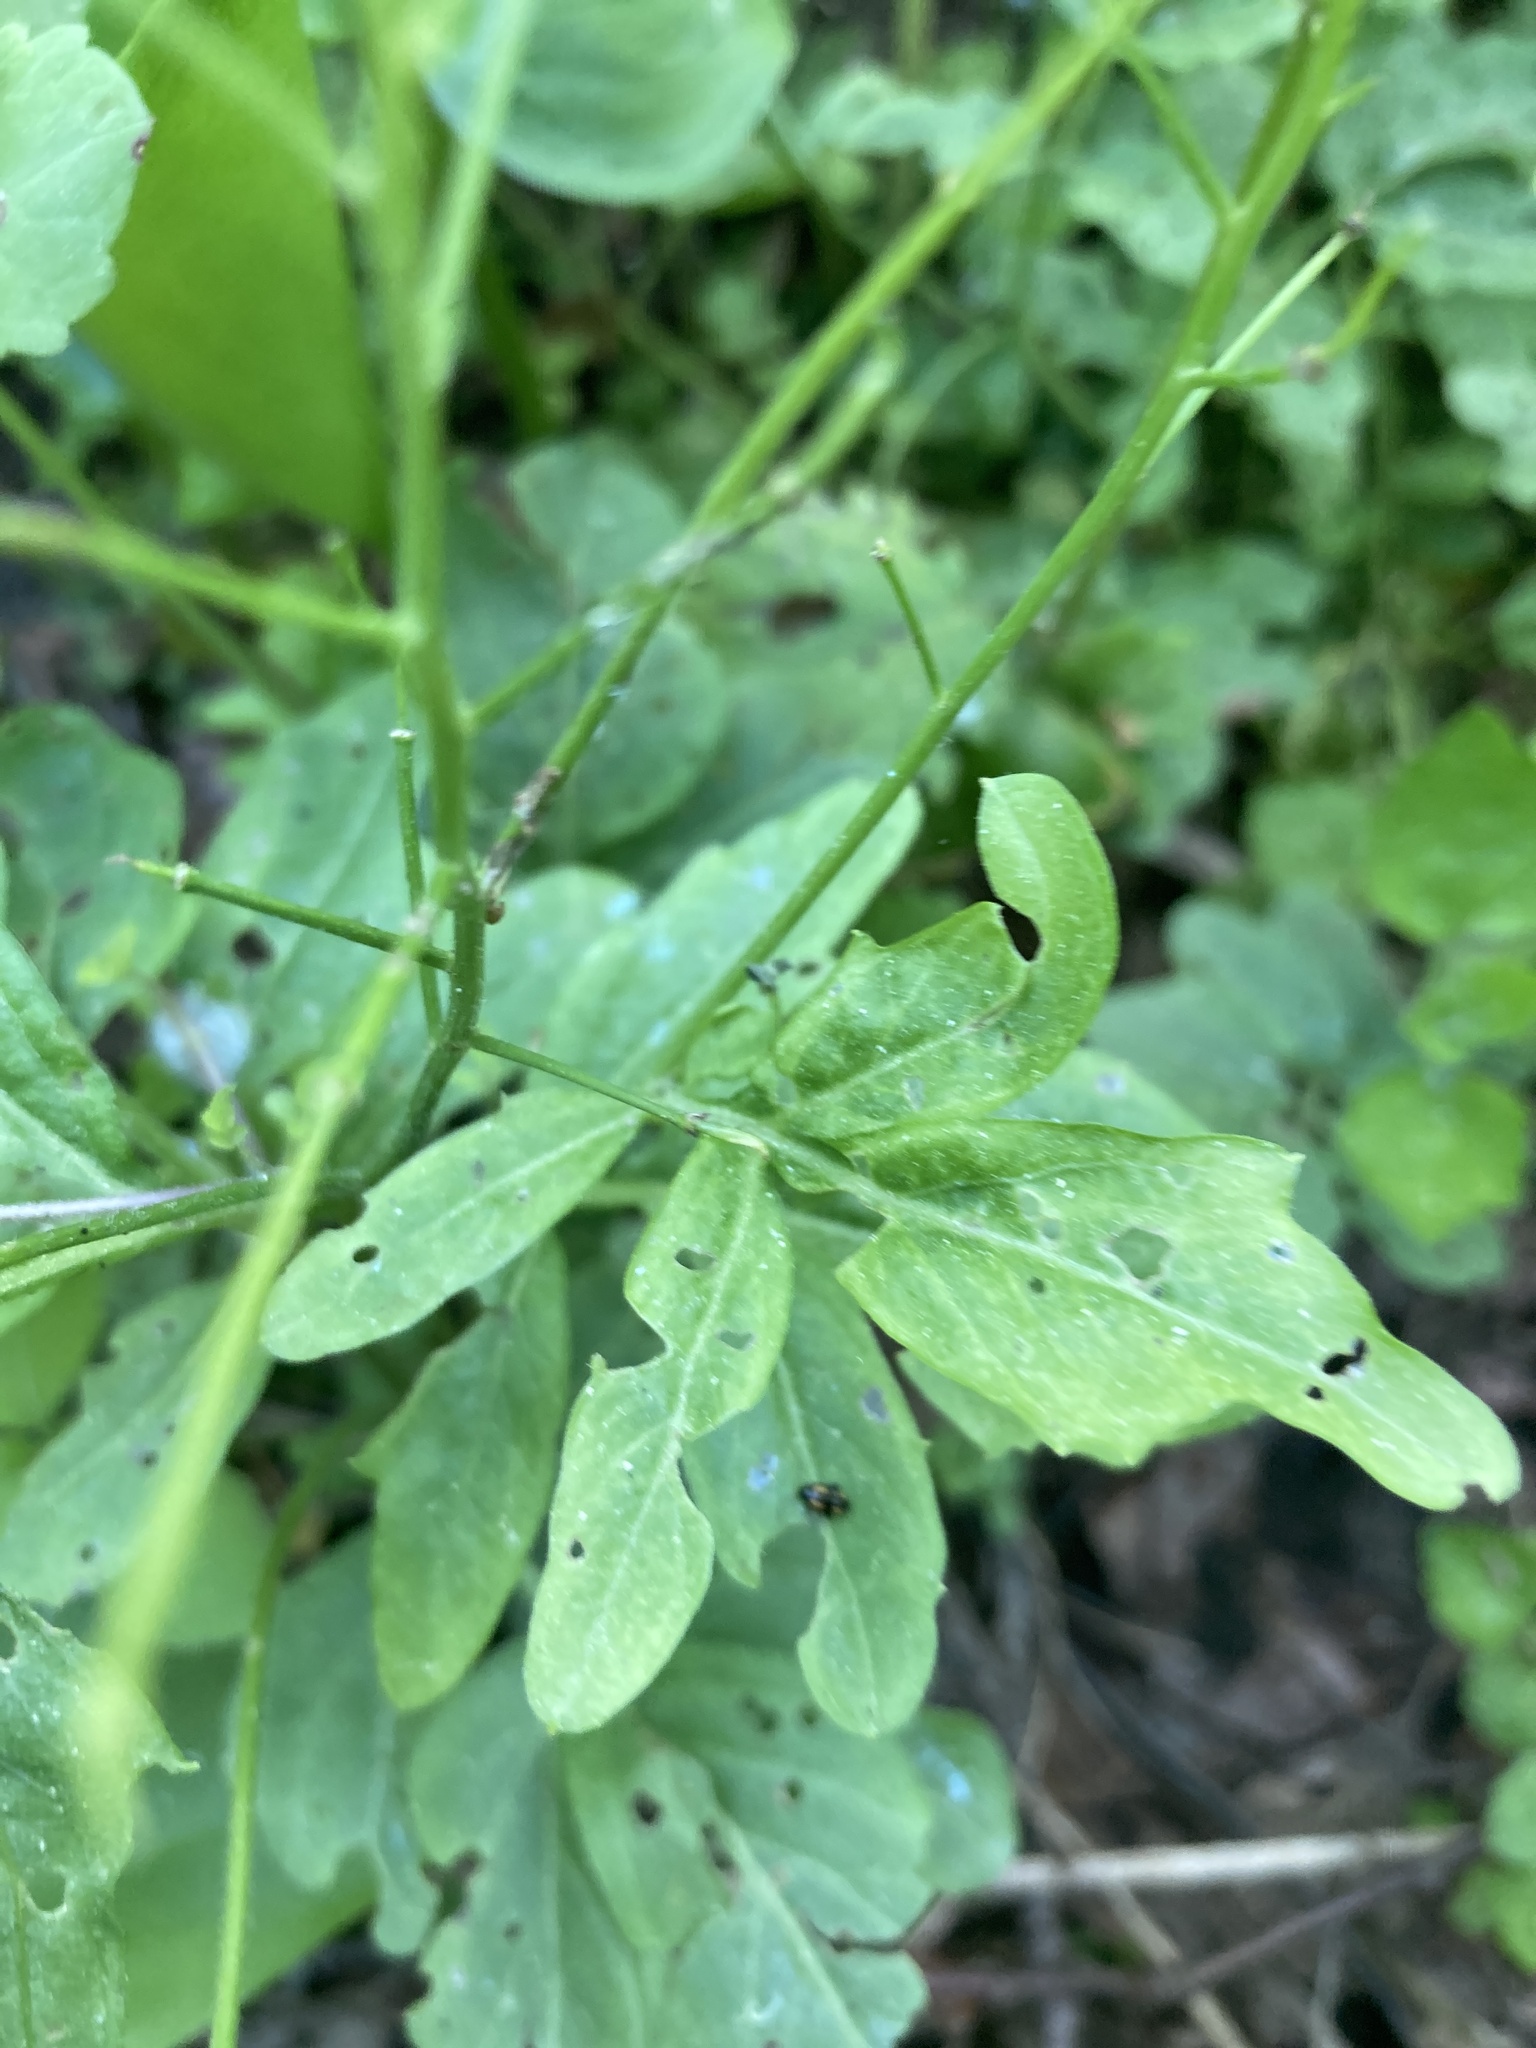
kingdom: Plantae
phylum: Tracheophyta
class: Magnoliopsida
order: Brassicales
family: Brassicaceae
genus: Cardamine
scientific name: Cardamine amara
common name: Large bitter-cress
